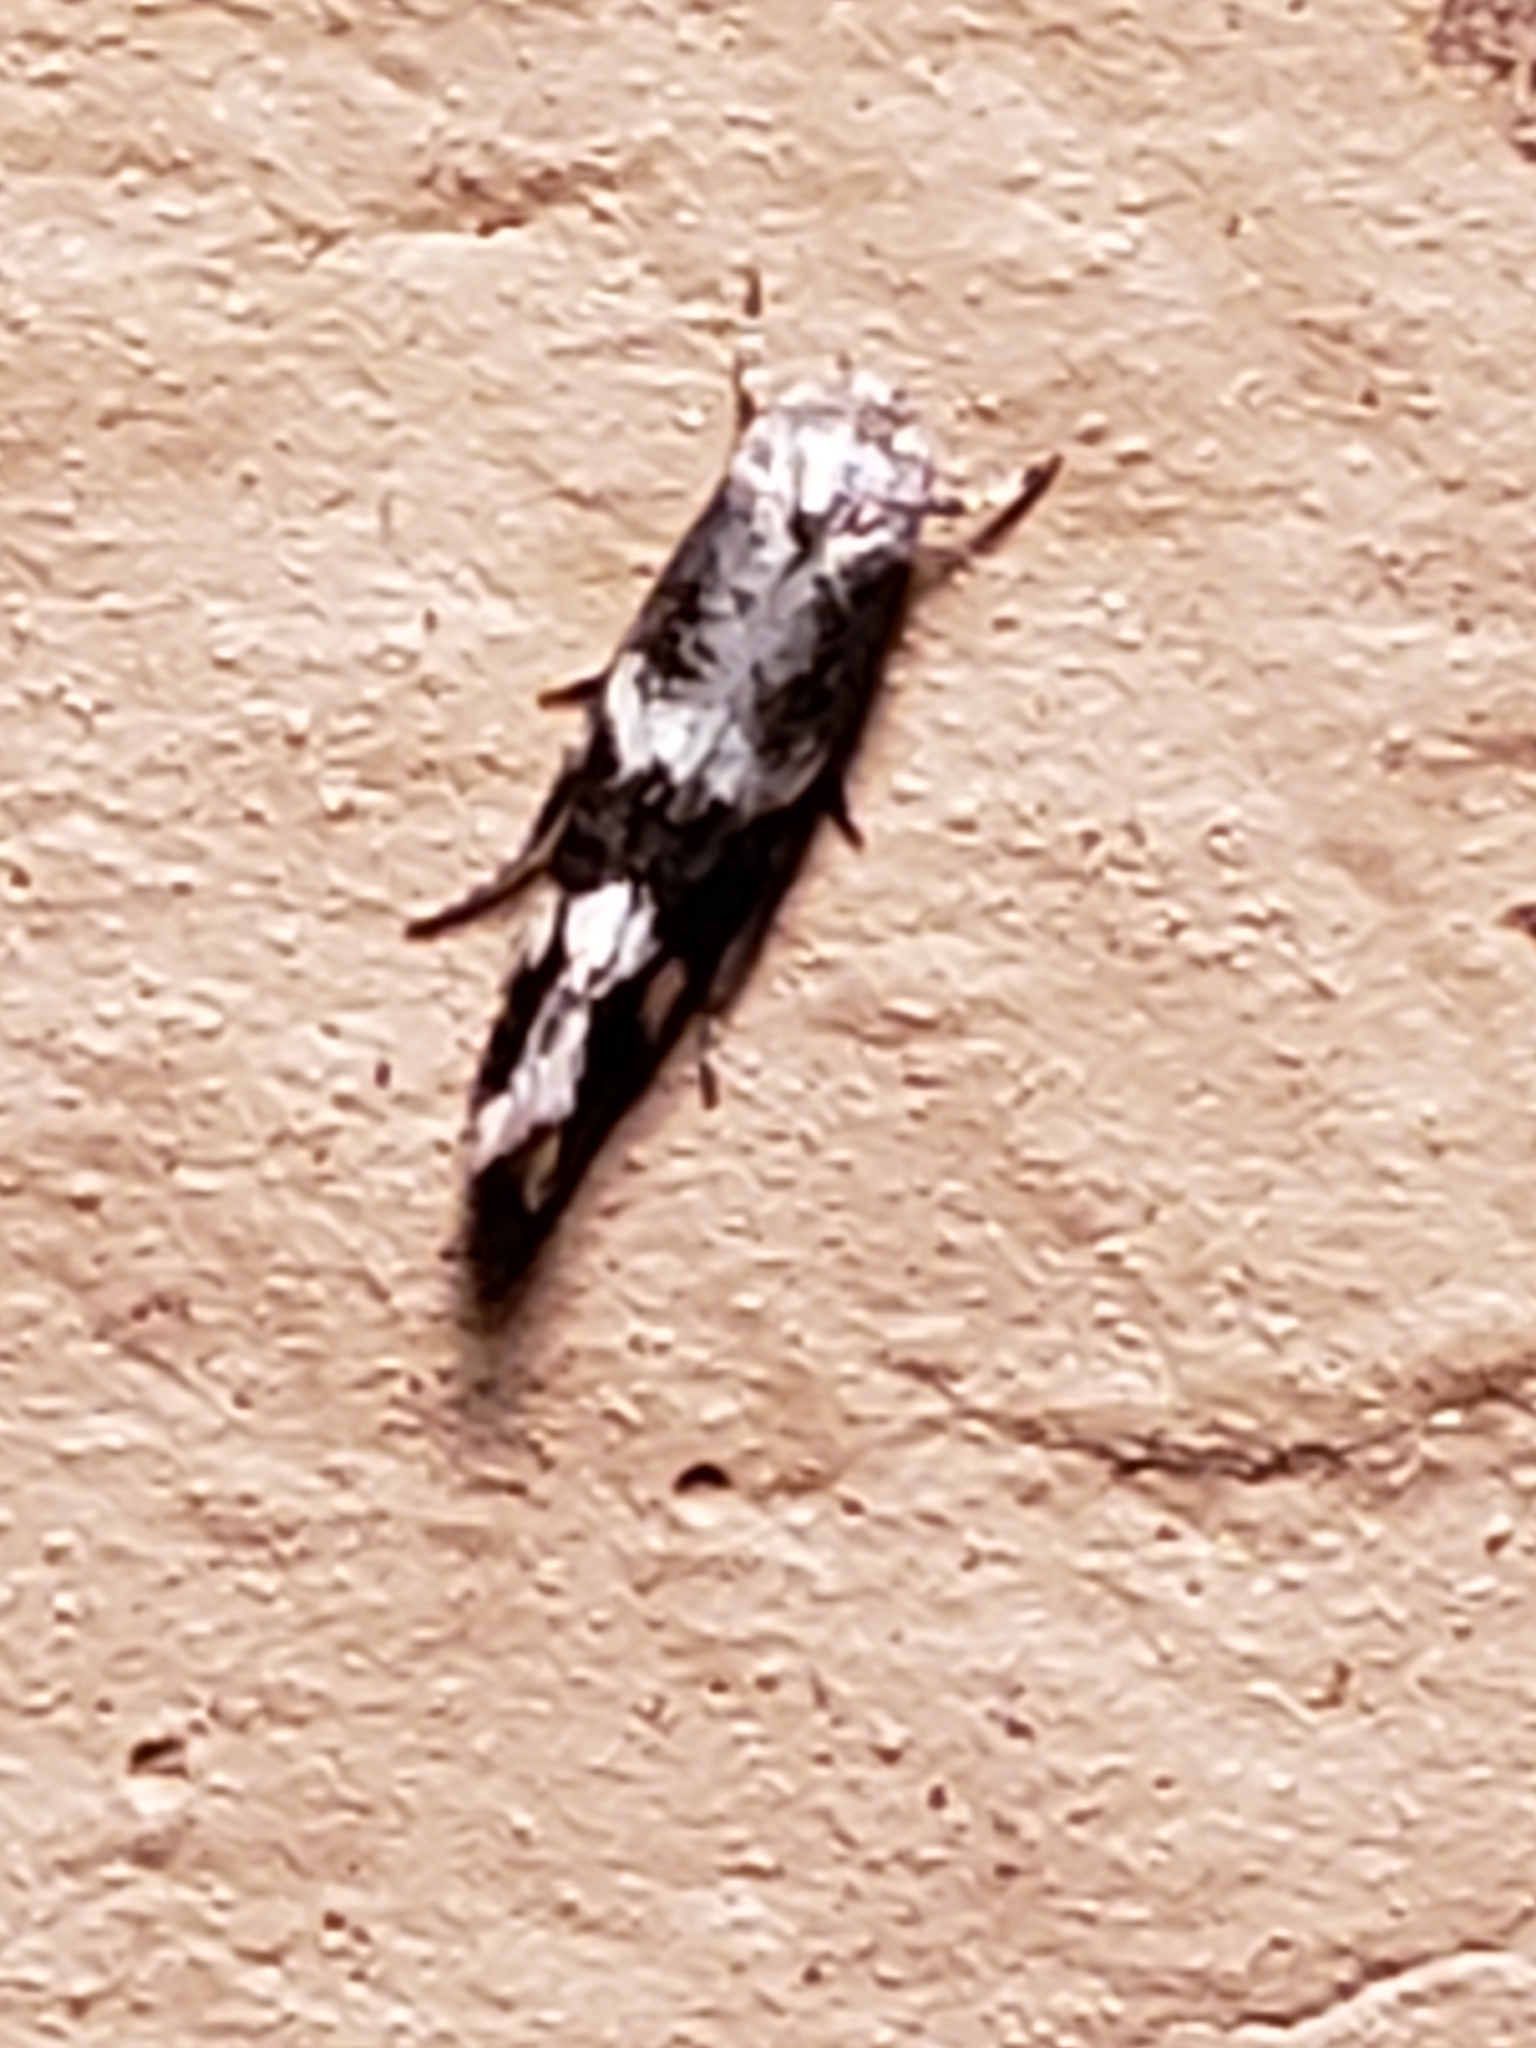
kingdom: Animalia
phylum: Arthropoda
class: Insecta
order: Lepidoptera
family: Elachistidae
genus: Elachista
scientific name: Elachista illectella
